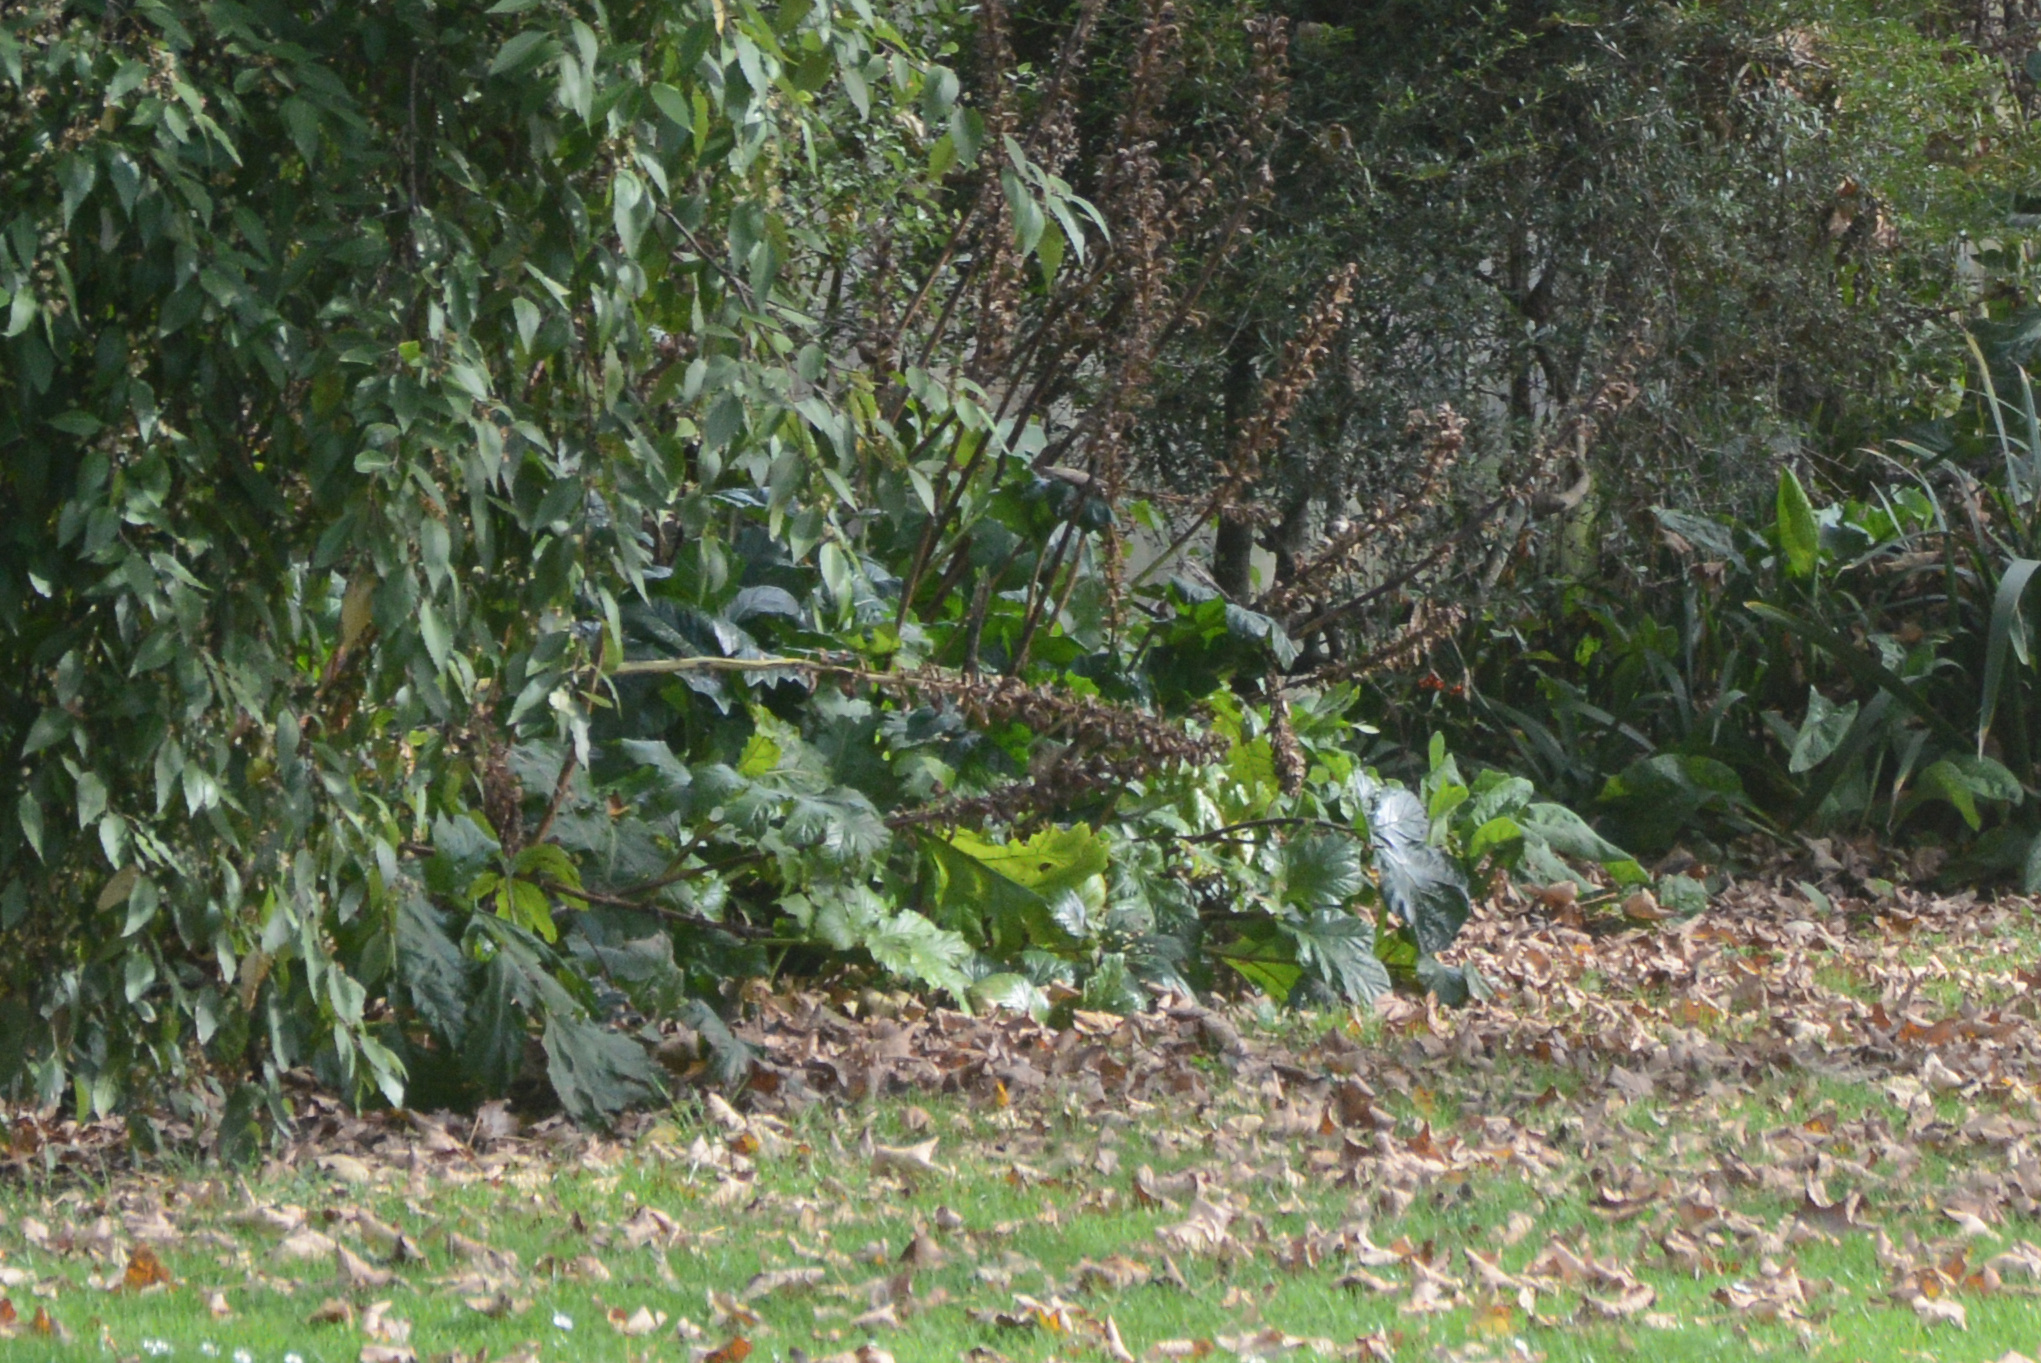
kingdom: Plantae
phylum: Tracheophyta
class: Magnoliopsida
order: Lamiales
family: Acanthaceae
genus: Acanthus
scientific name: Acanthus mollis
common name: Bear's-breech
